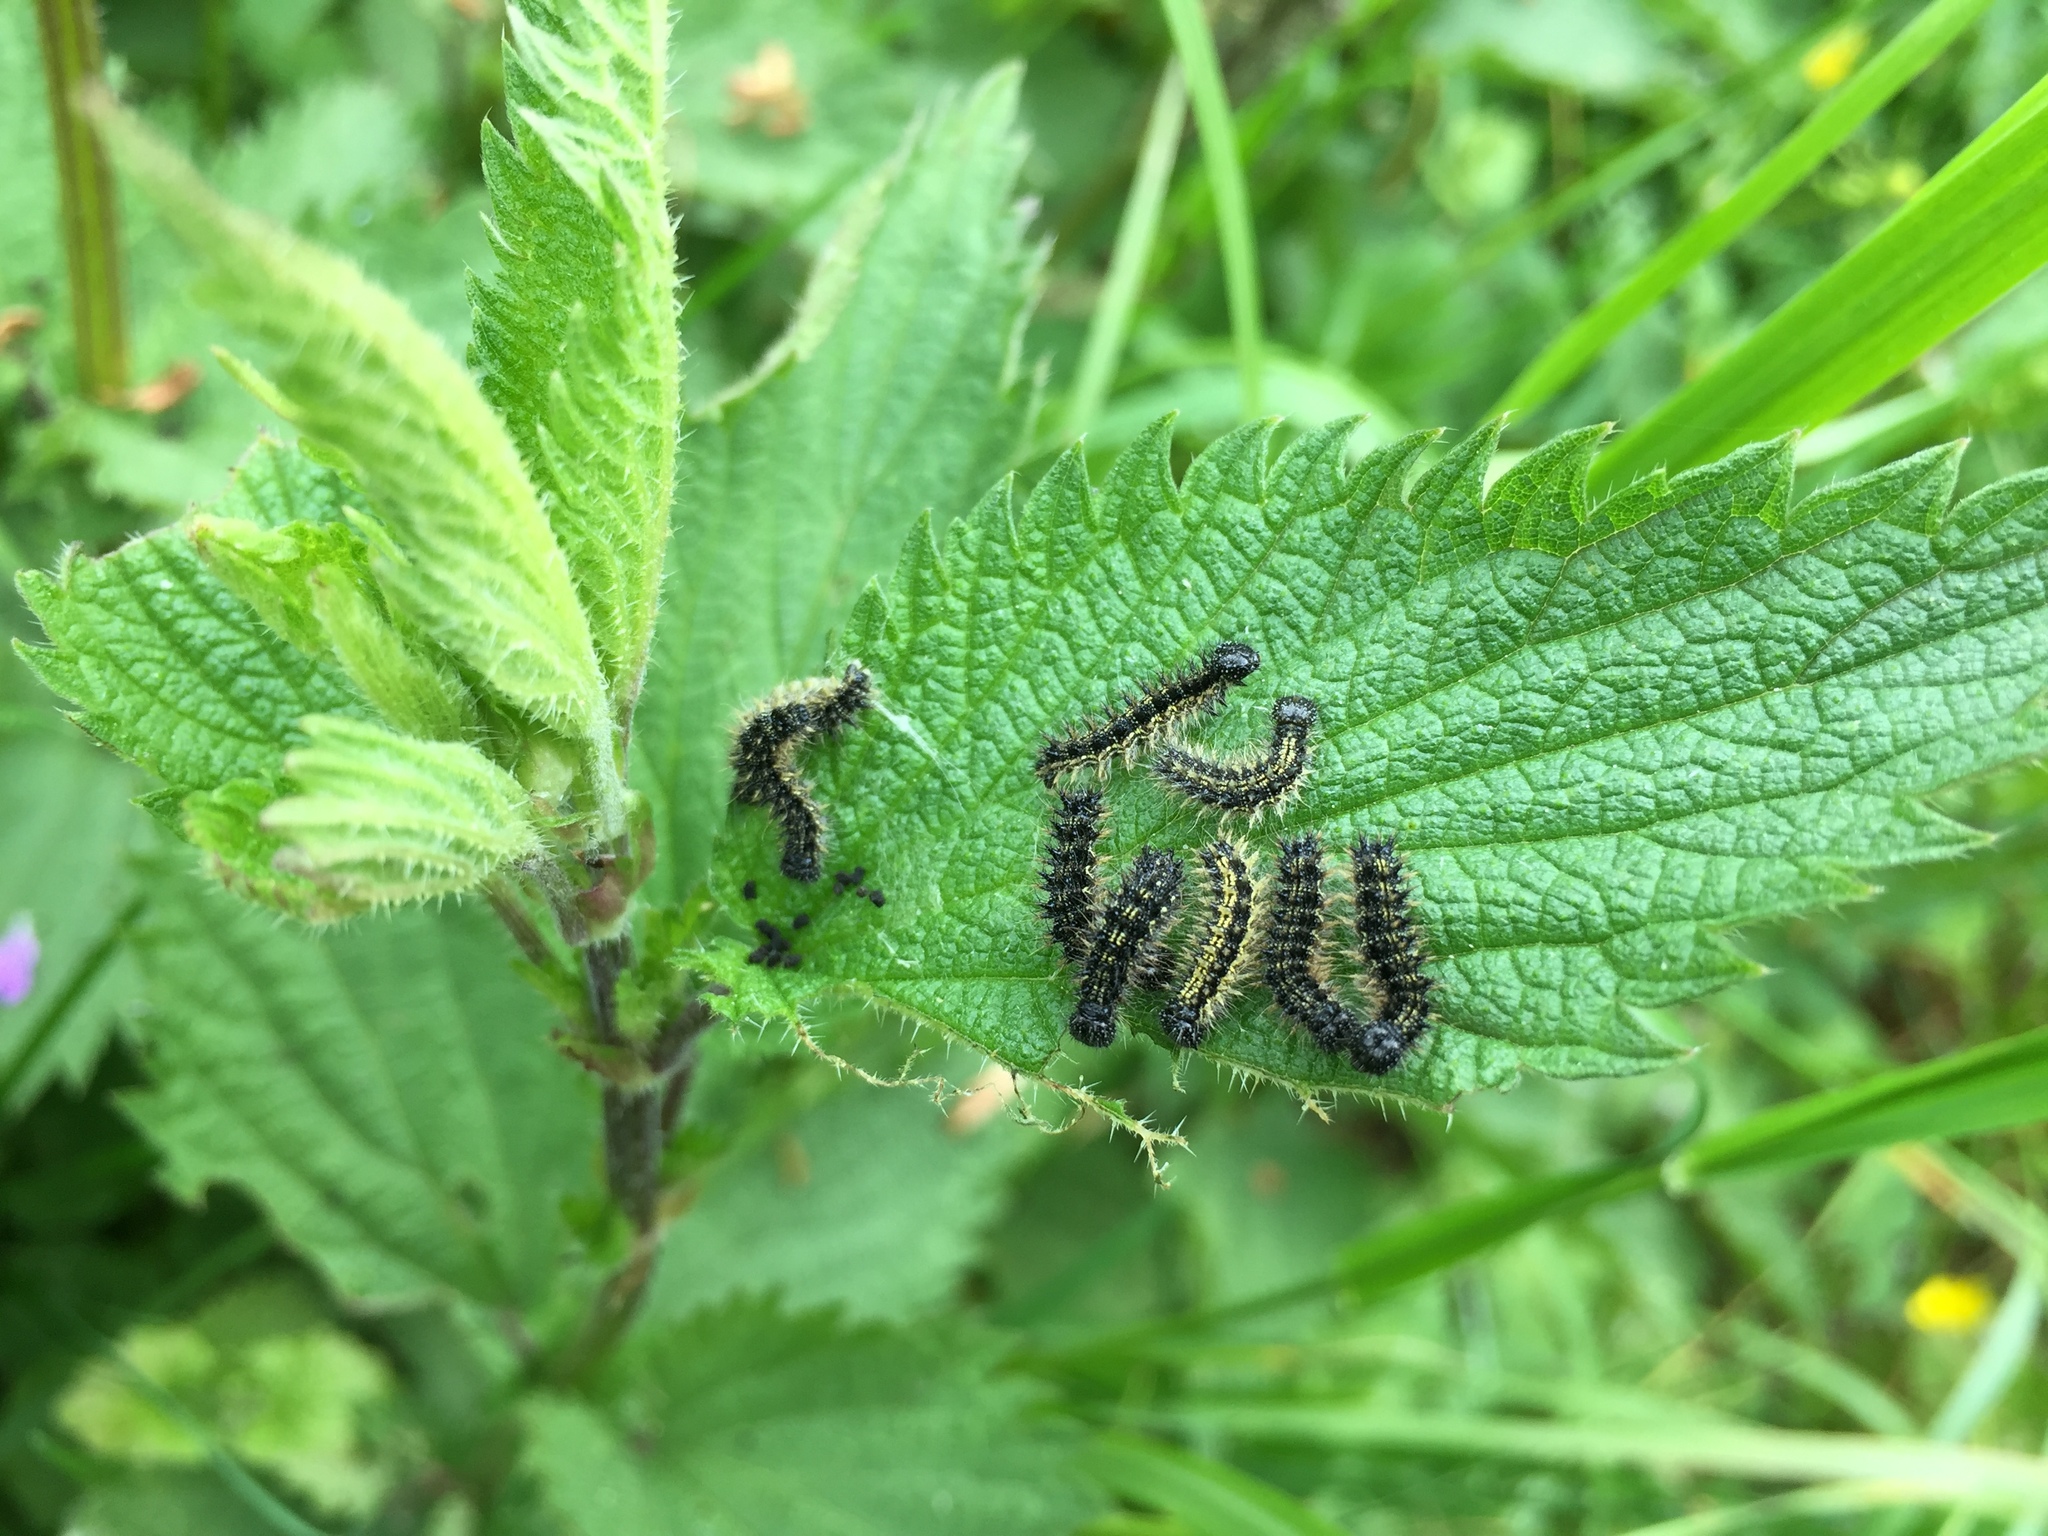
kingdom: Animalia
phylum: Arthropoda
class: Insecta
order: Lepidoptera
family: Nymphalidae
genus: Aglais
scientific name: Aglais urticae
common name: Small tortoiseshell
